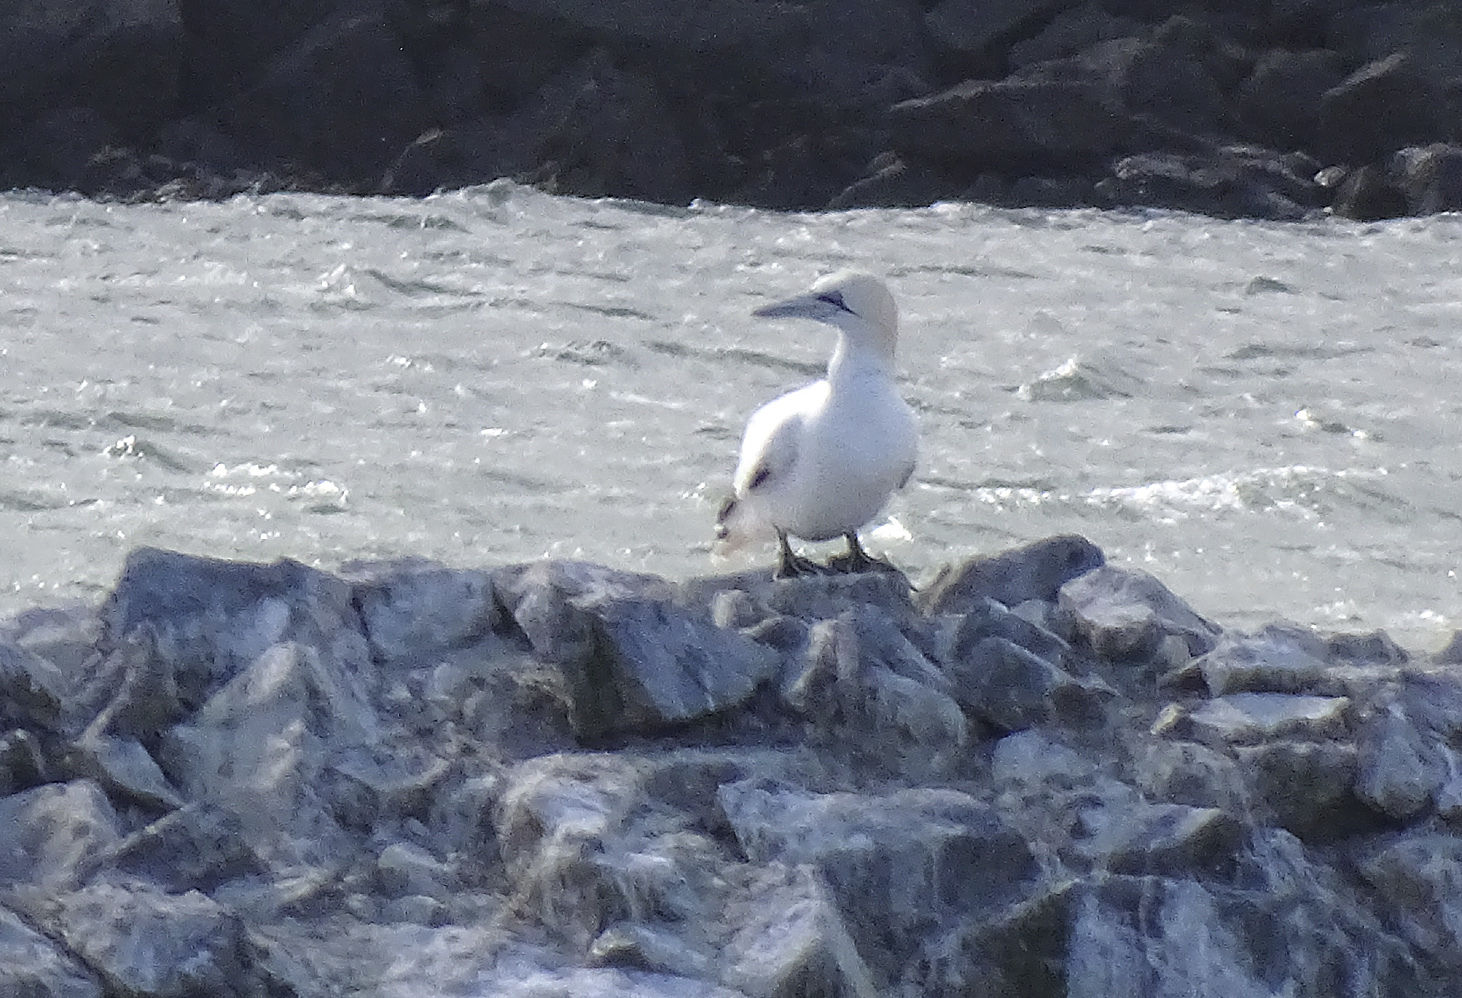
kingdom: Animalia
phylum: Chordata
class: Aves
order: Suliformes
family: Sulidae
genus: Morus
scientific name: Morus bassanus
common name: Northern gannet
